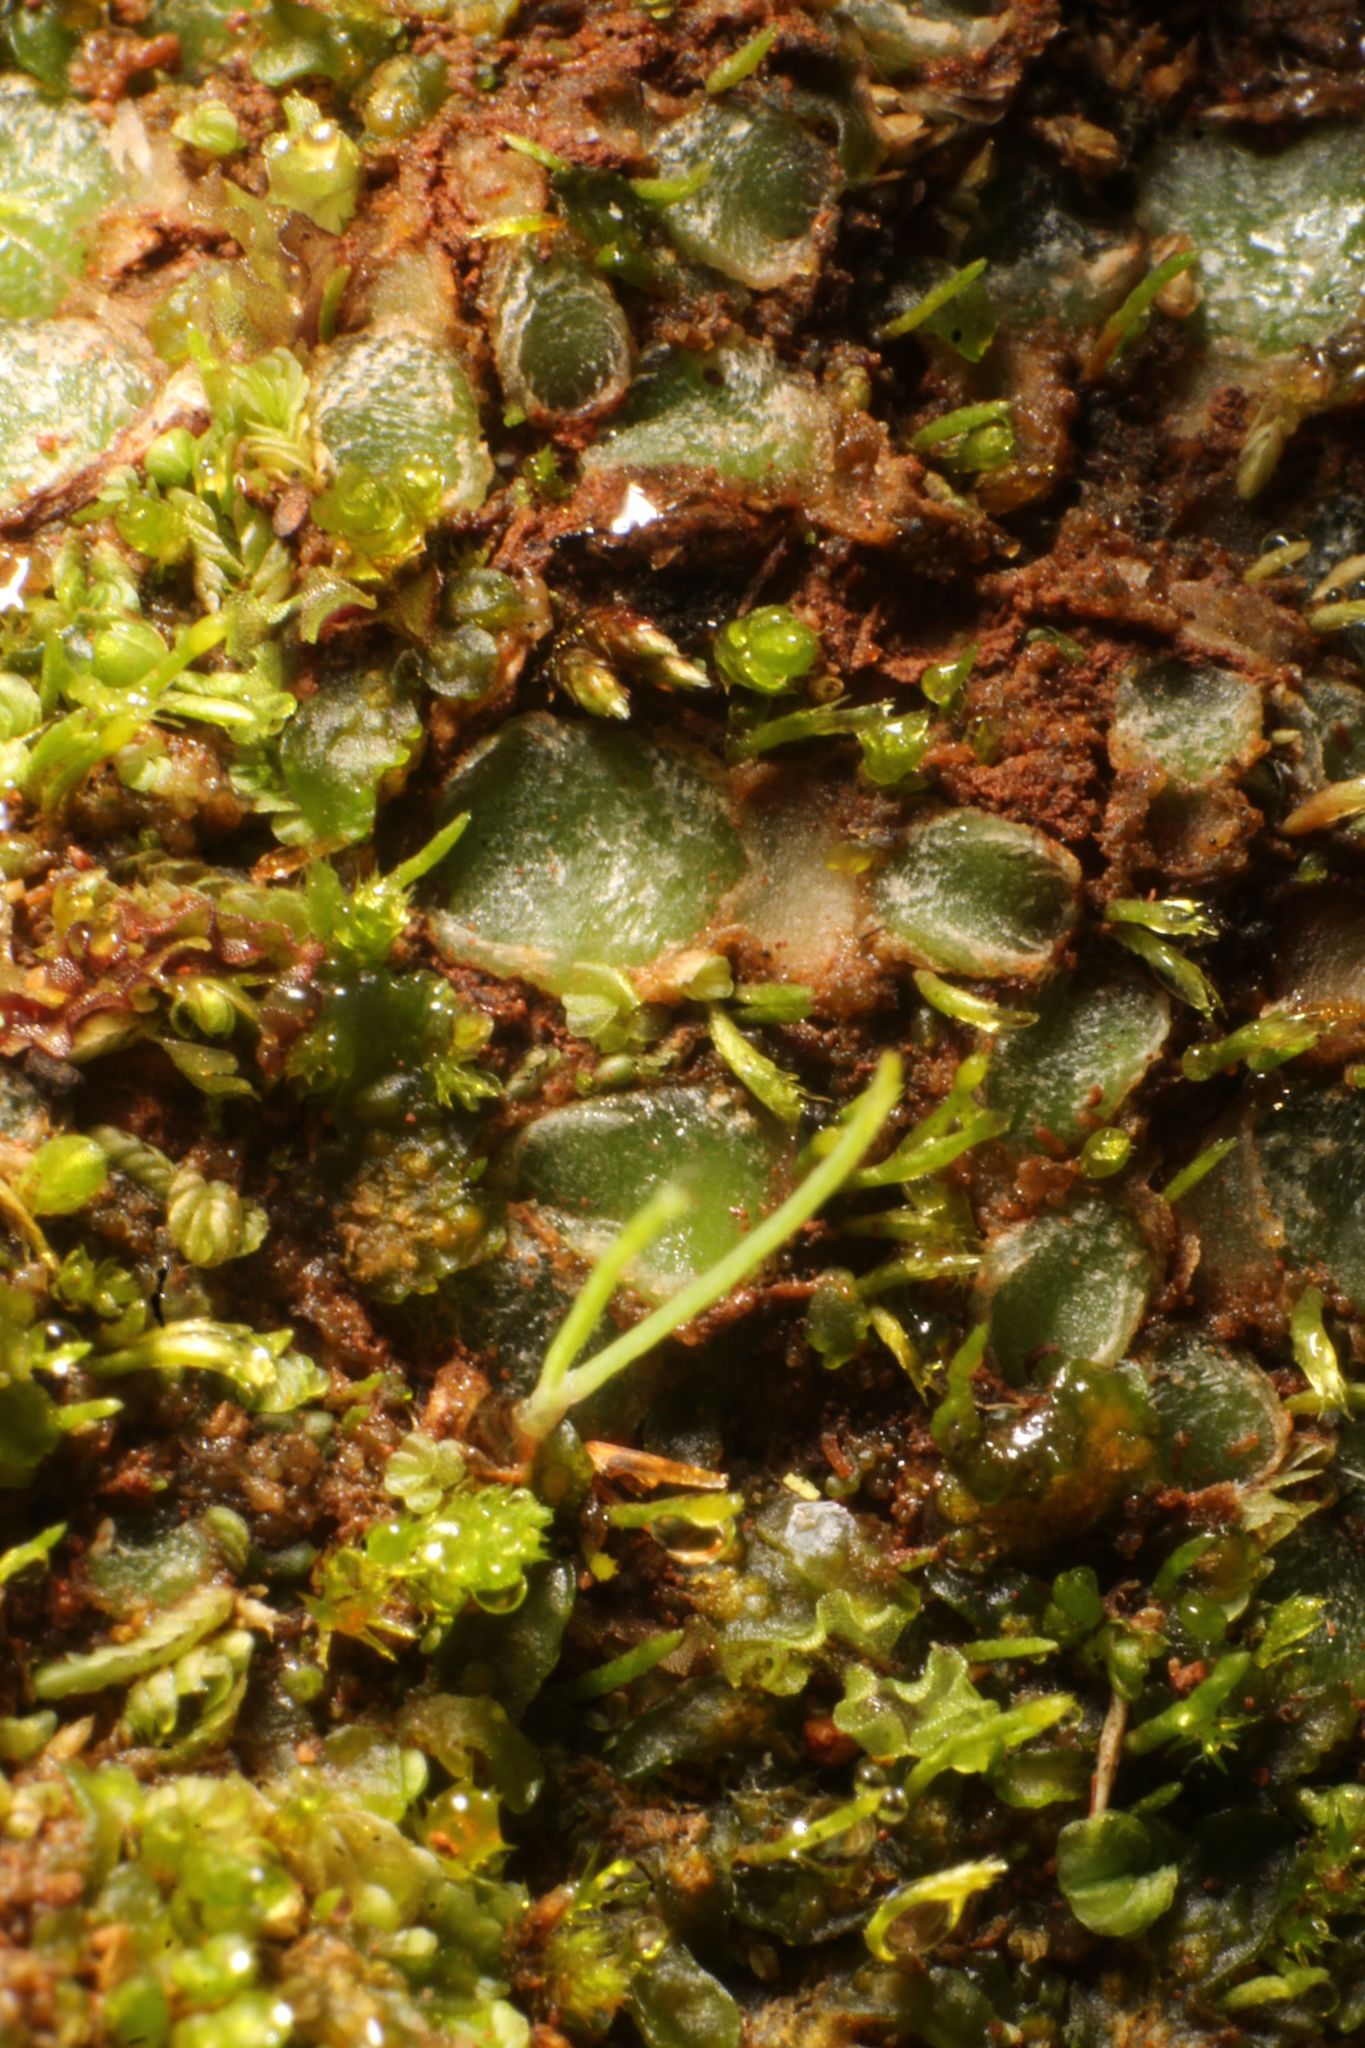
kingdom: Plantae
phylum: Marchantiophyta
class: Jungermanniopsida
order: Jungermanniales
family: Acrobolbaceae
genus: Enigmella
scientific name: Enigmella thallina
